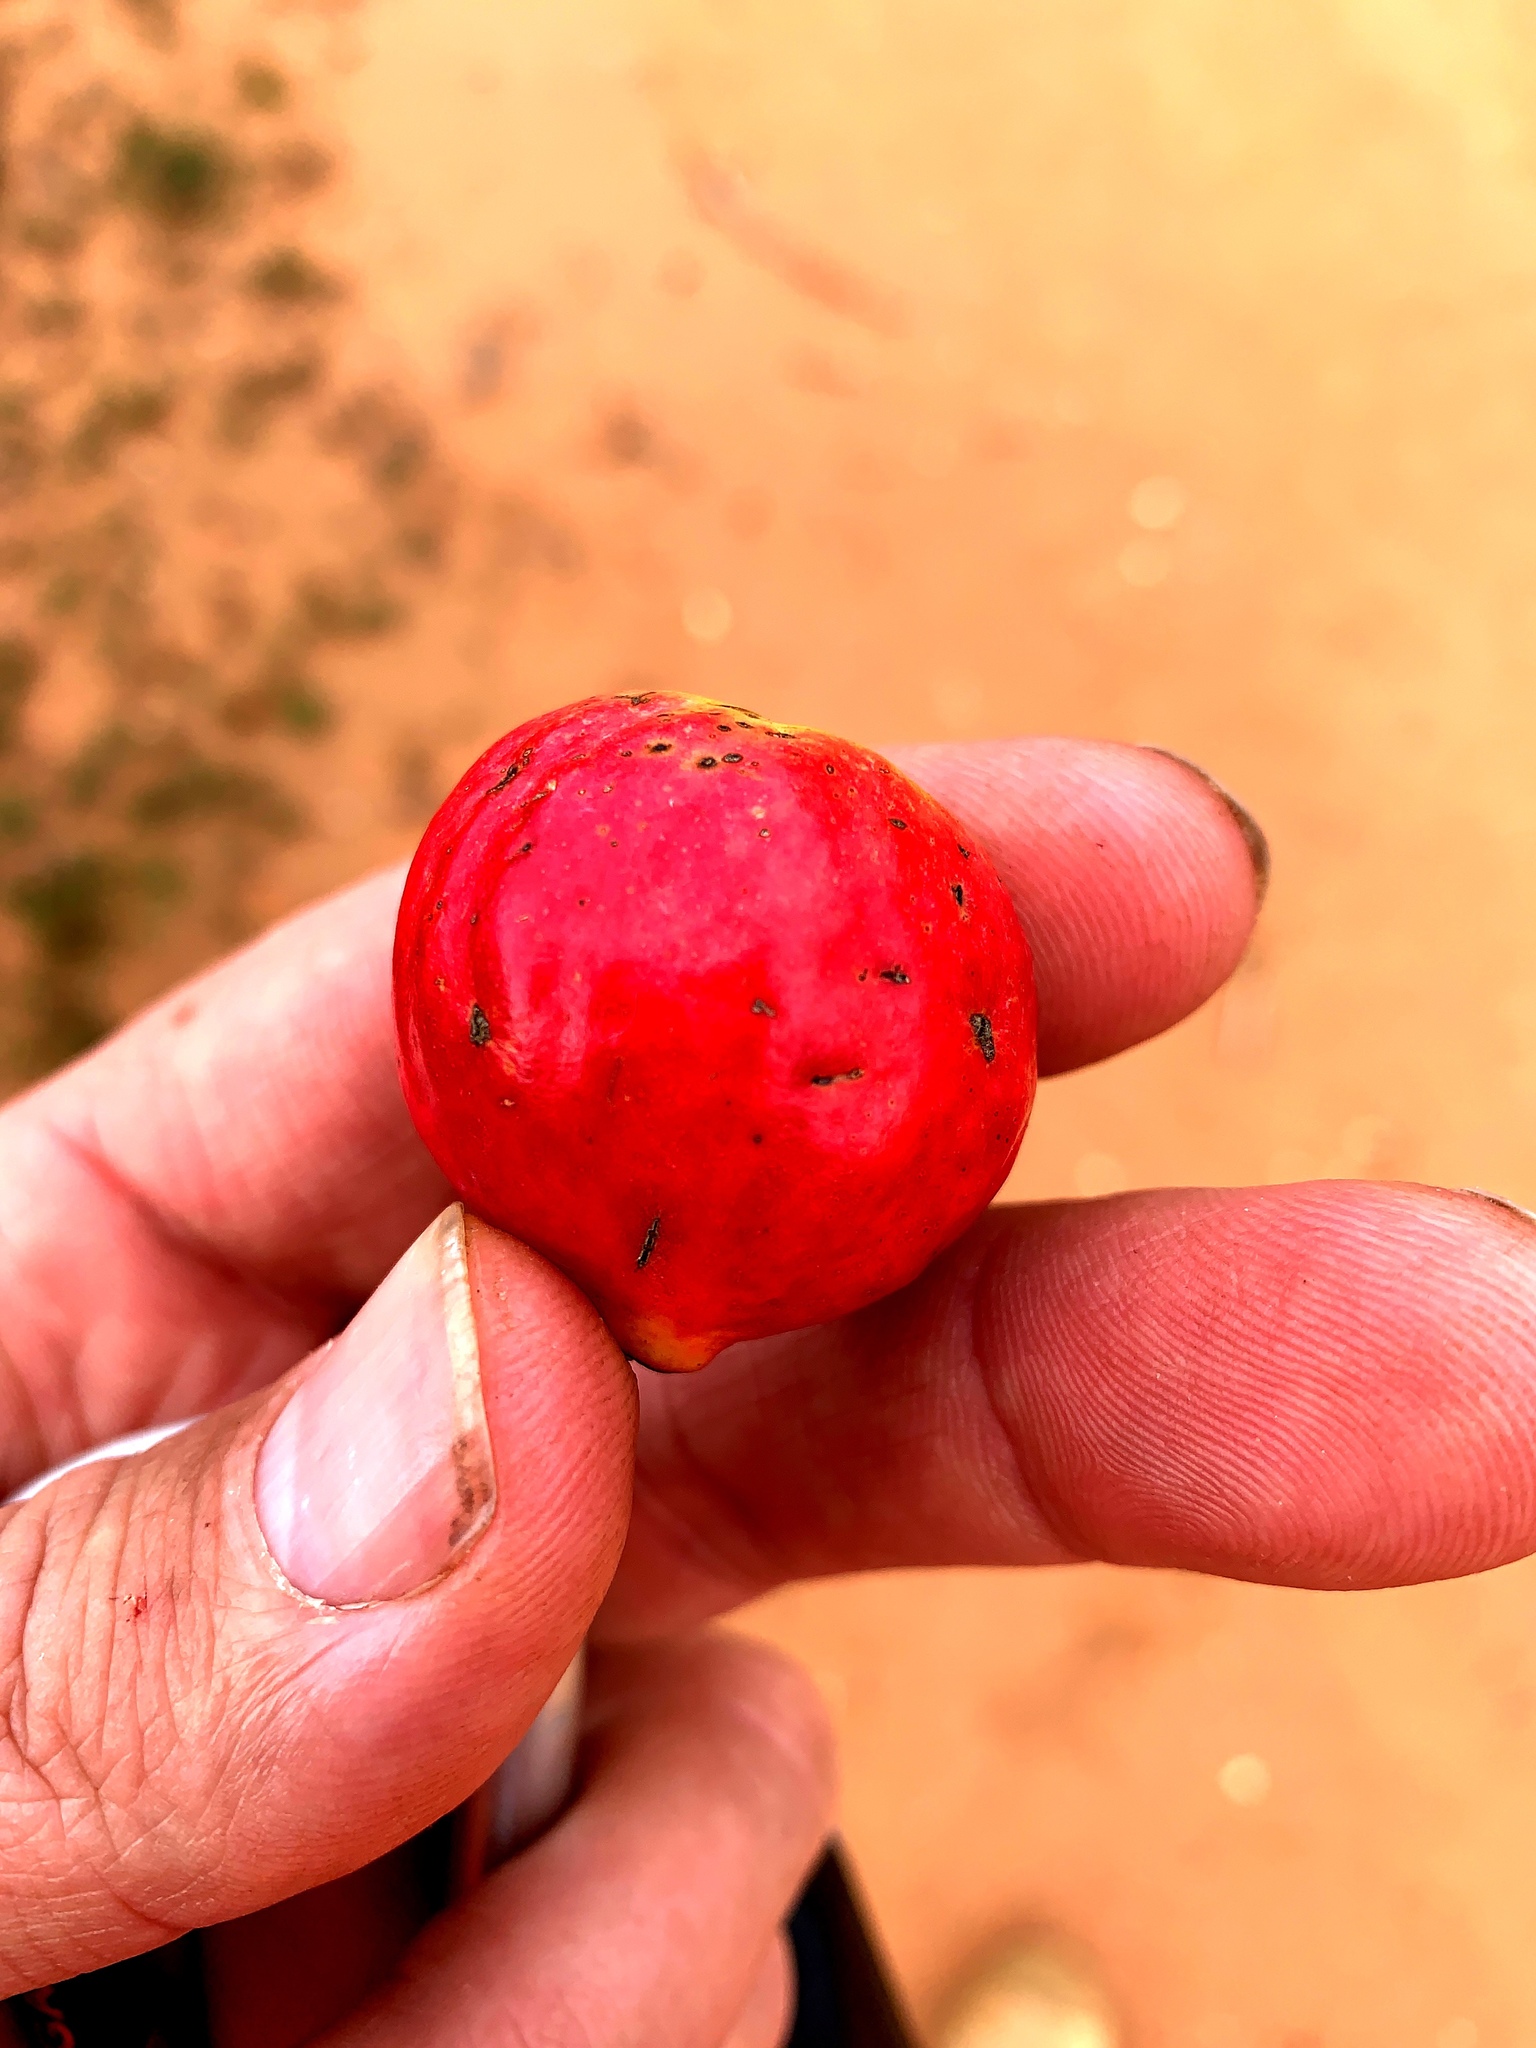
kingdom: Plantae
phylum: Tracheophyta
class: Magnoliopsida
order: Santalales
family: Santalaceae
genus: Santalum
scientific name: Santalum murrayanum
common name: Bitter quandong
